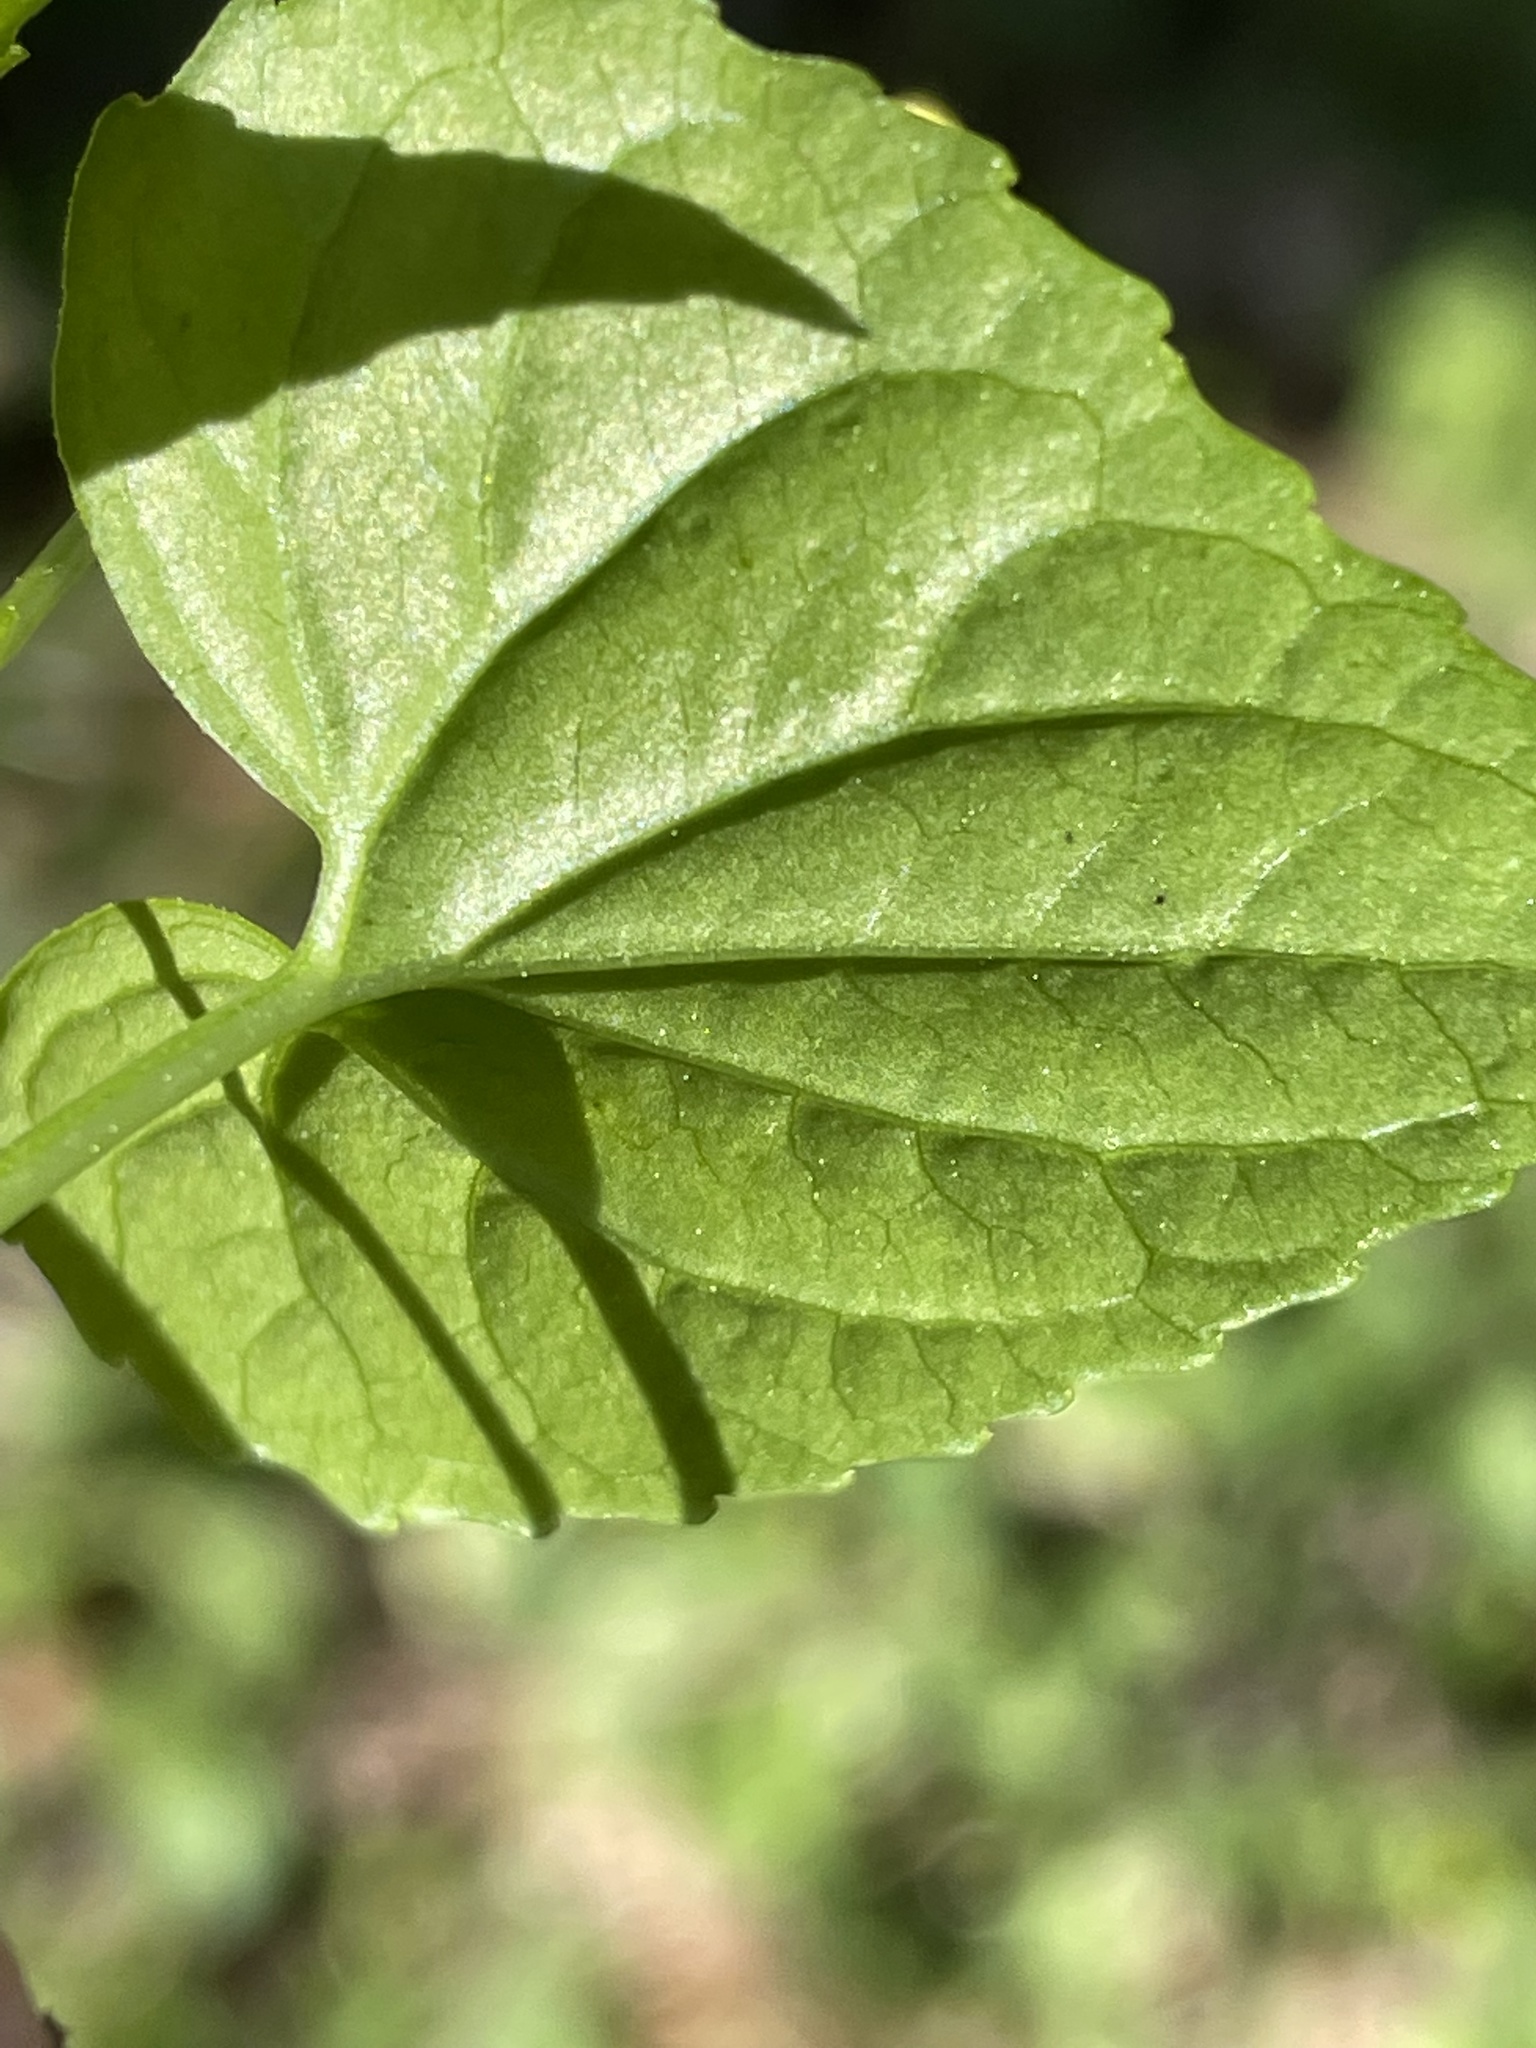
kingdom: Plantae
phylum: Tracheophyta
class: Magnoliopsida
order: Malpighiales
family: Violaceae
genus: Viola
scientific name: Viola eriocarpa
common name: Smooth yellow violet
